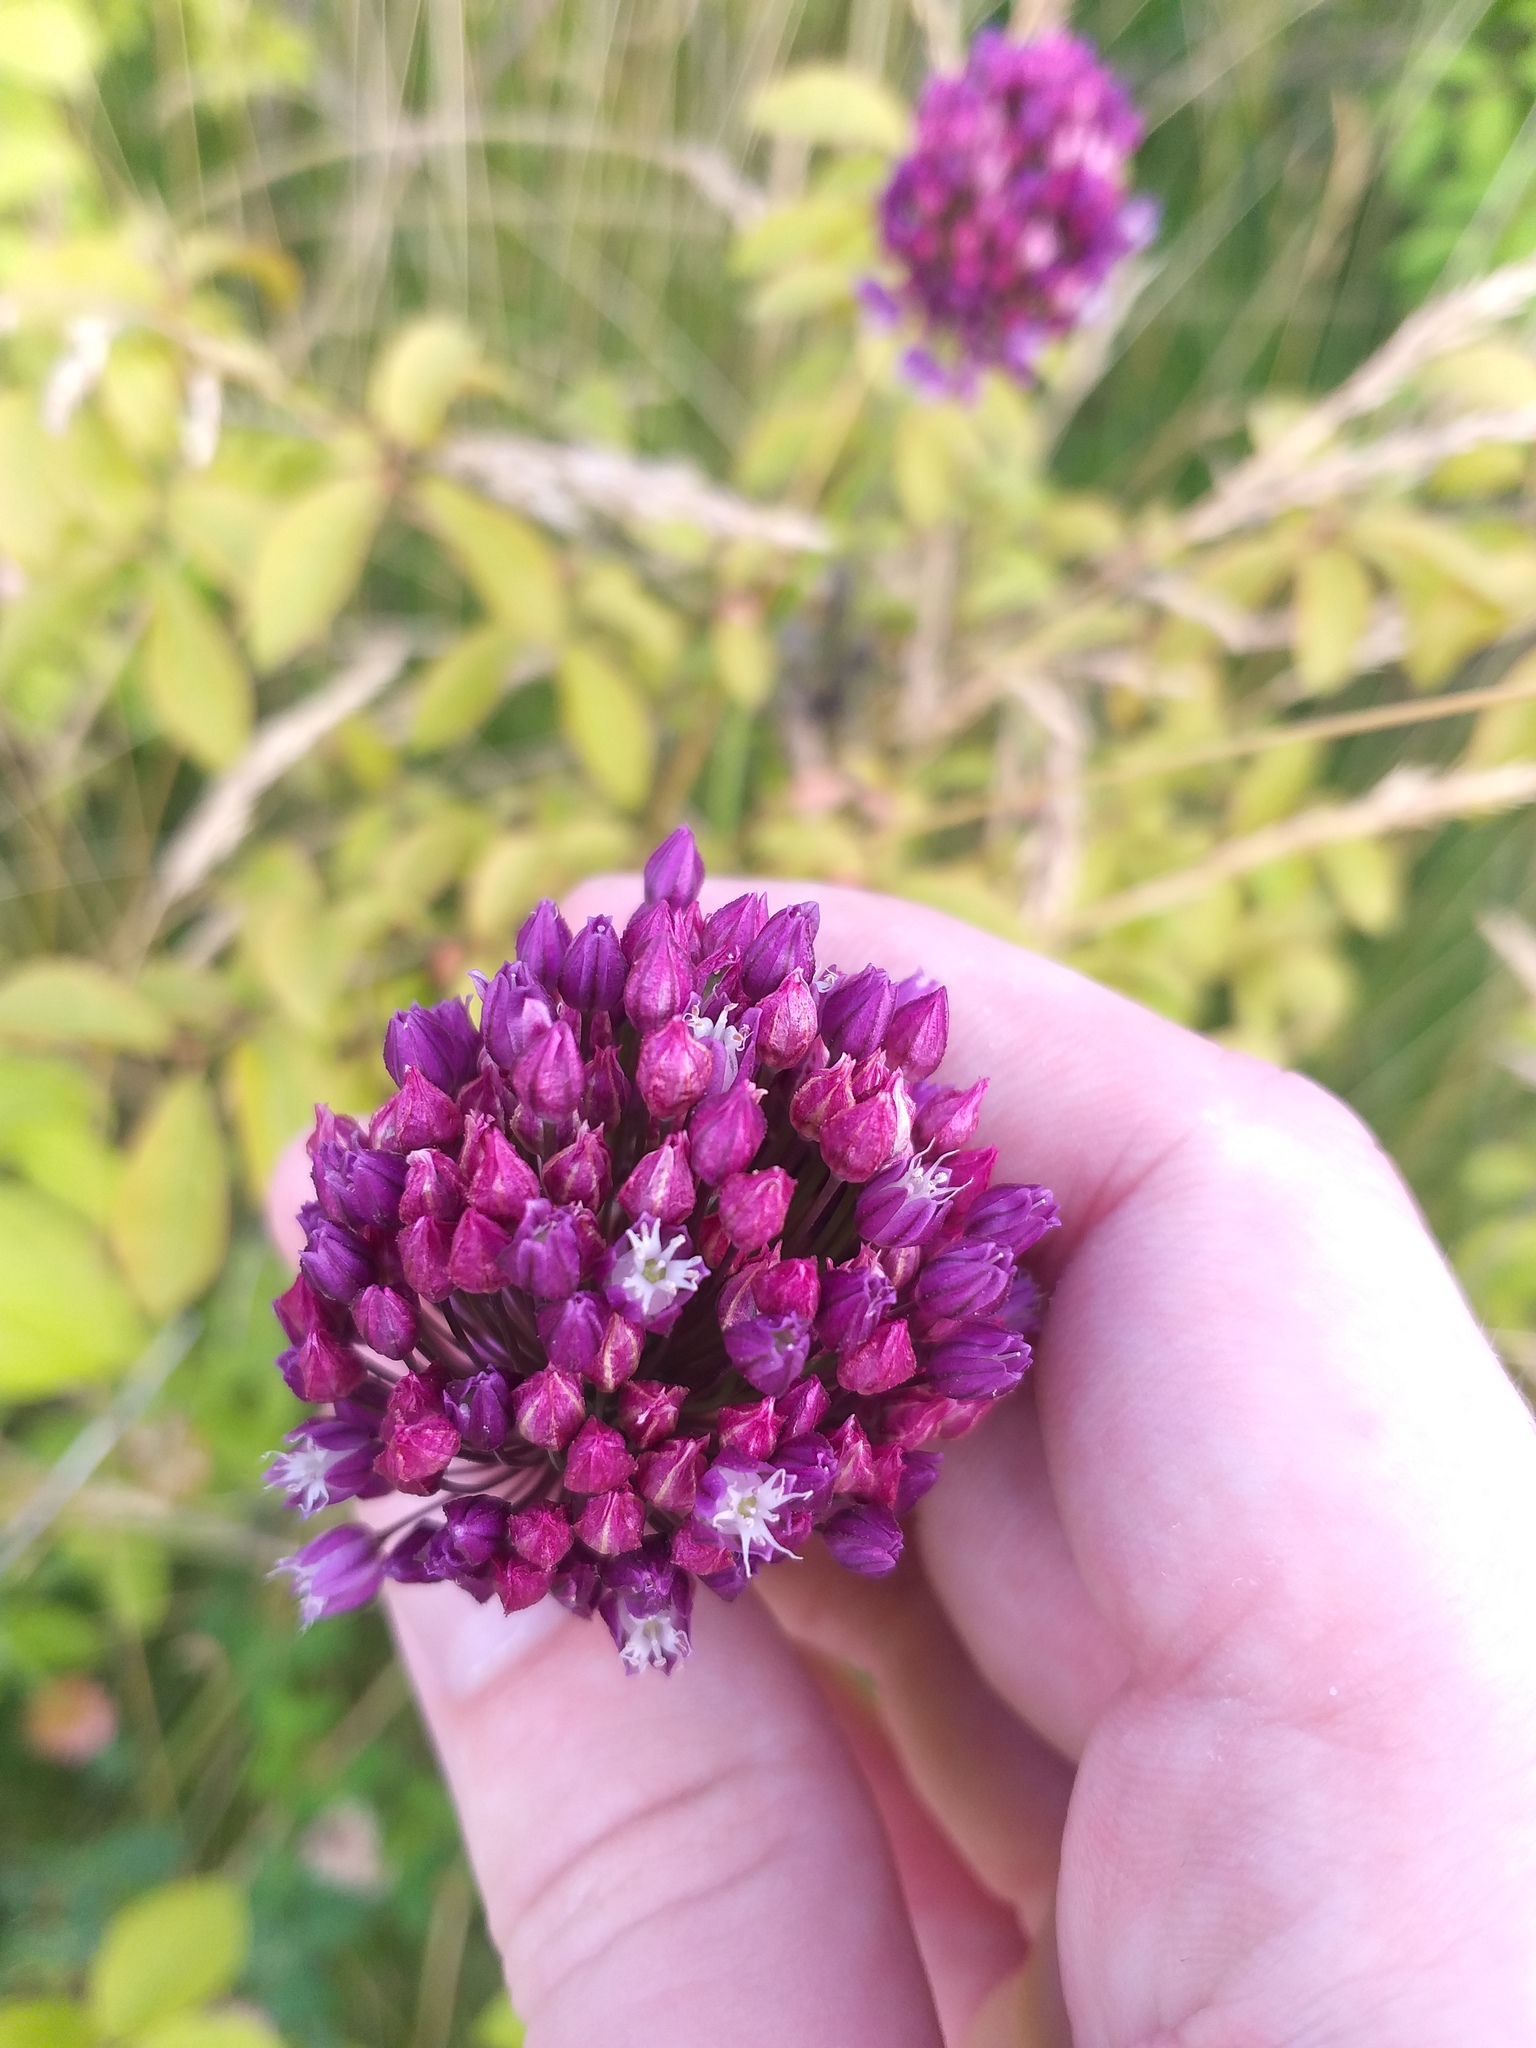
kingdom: Plantae
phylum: Tracheophyta
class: Liliopsida
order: Asparagales
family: Amaryllidaceae
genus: Allium
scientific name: Allium rotundum
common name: Sand leek
